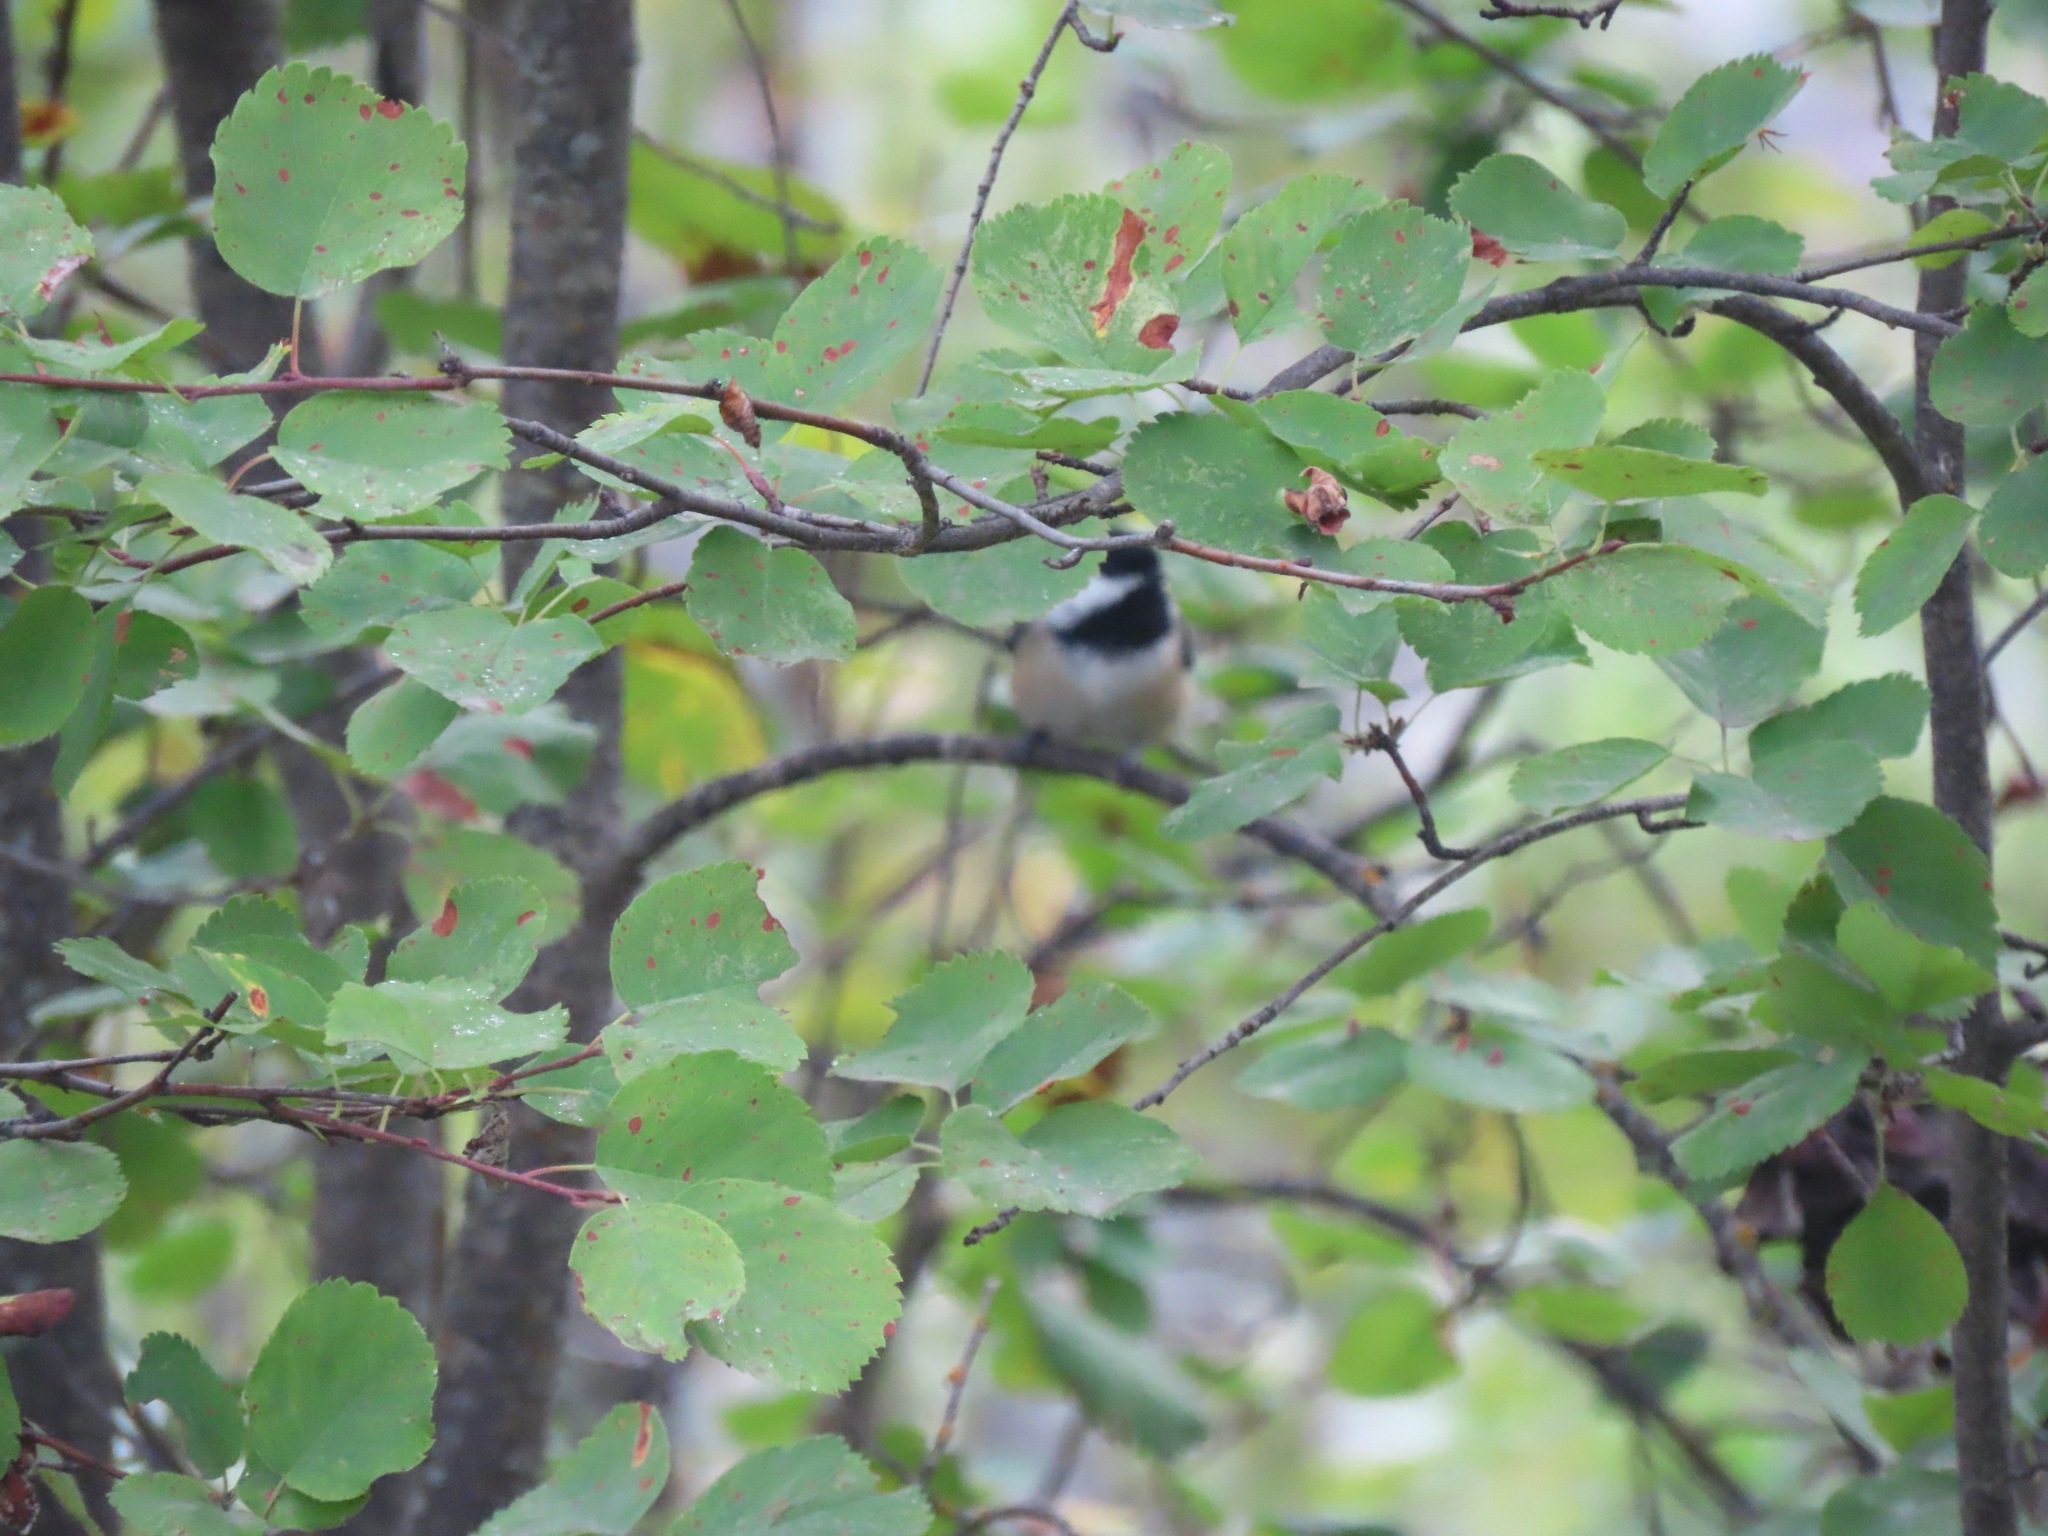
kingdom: Animalia
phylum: Chordata
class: Aves
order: Passeriformes
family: Paridae
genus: Poecile
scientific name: Poecile atricapillus
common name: Black-capped chickadee
